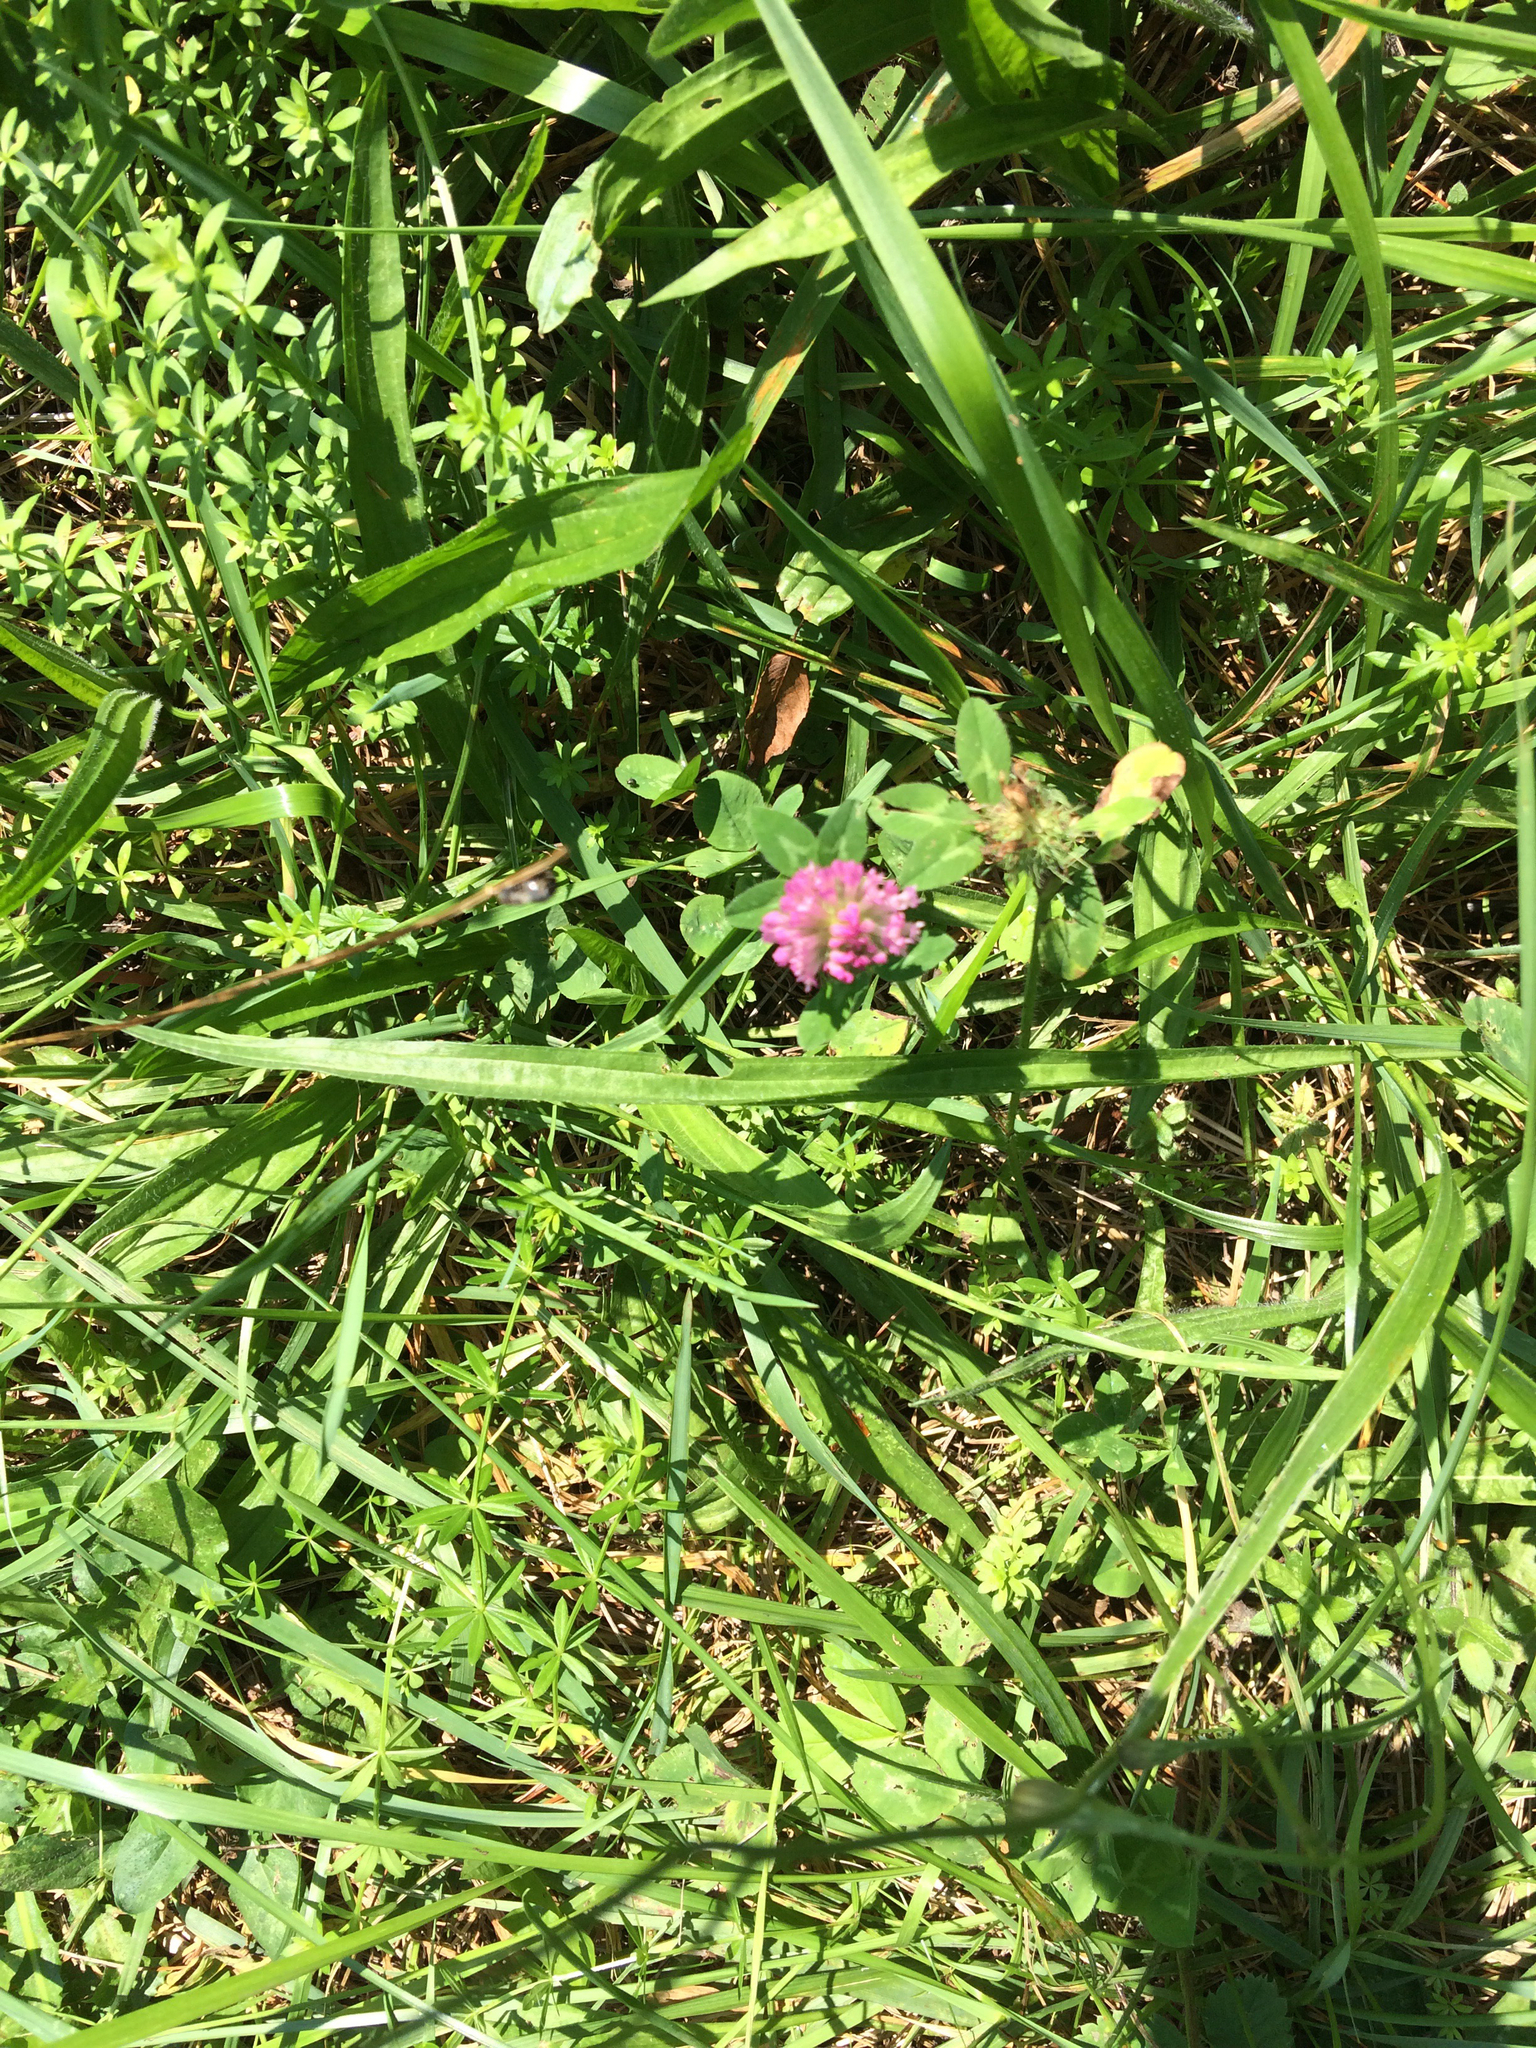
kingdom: Plantae
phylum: Tracheophyta
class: Magnoliopsida
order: Fabales
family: Fabaceae
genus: Trifolium
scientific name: Trifolium pratense
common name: Red clover
